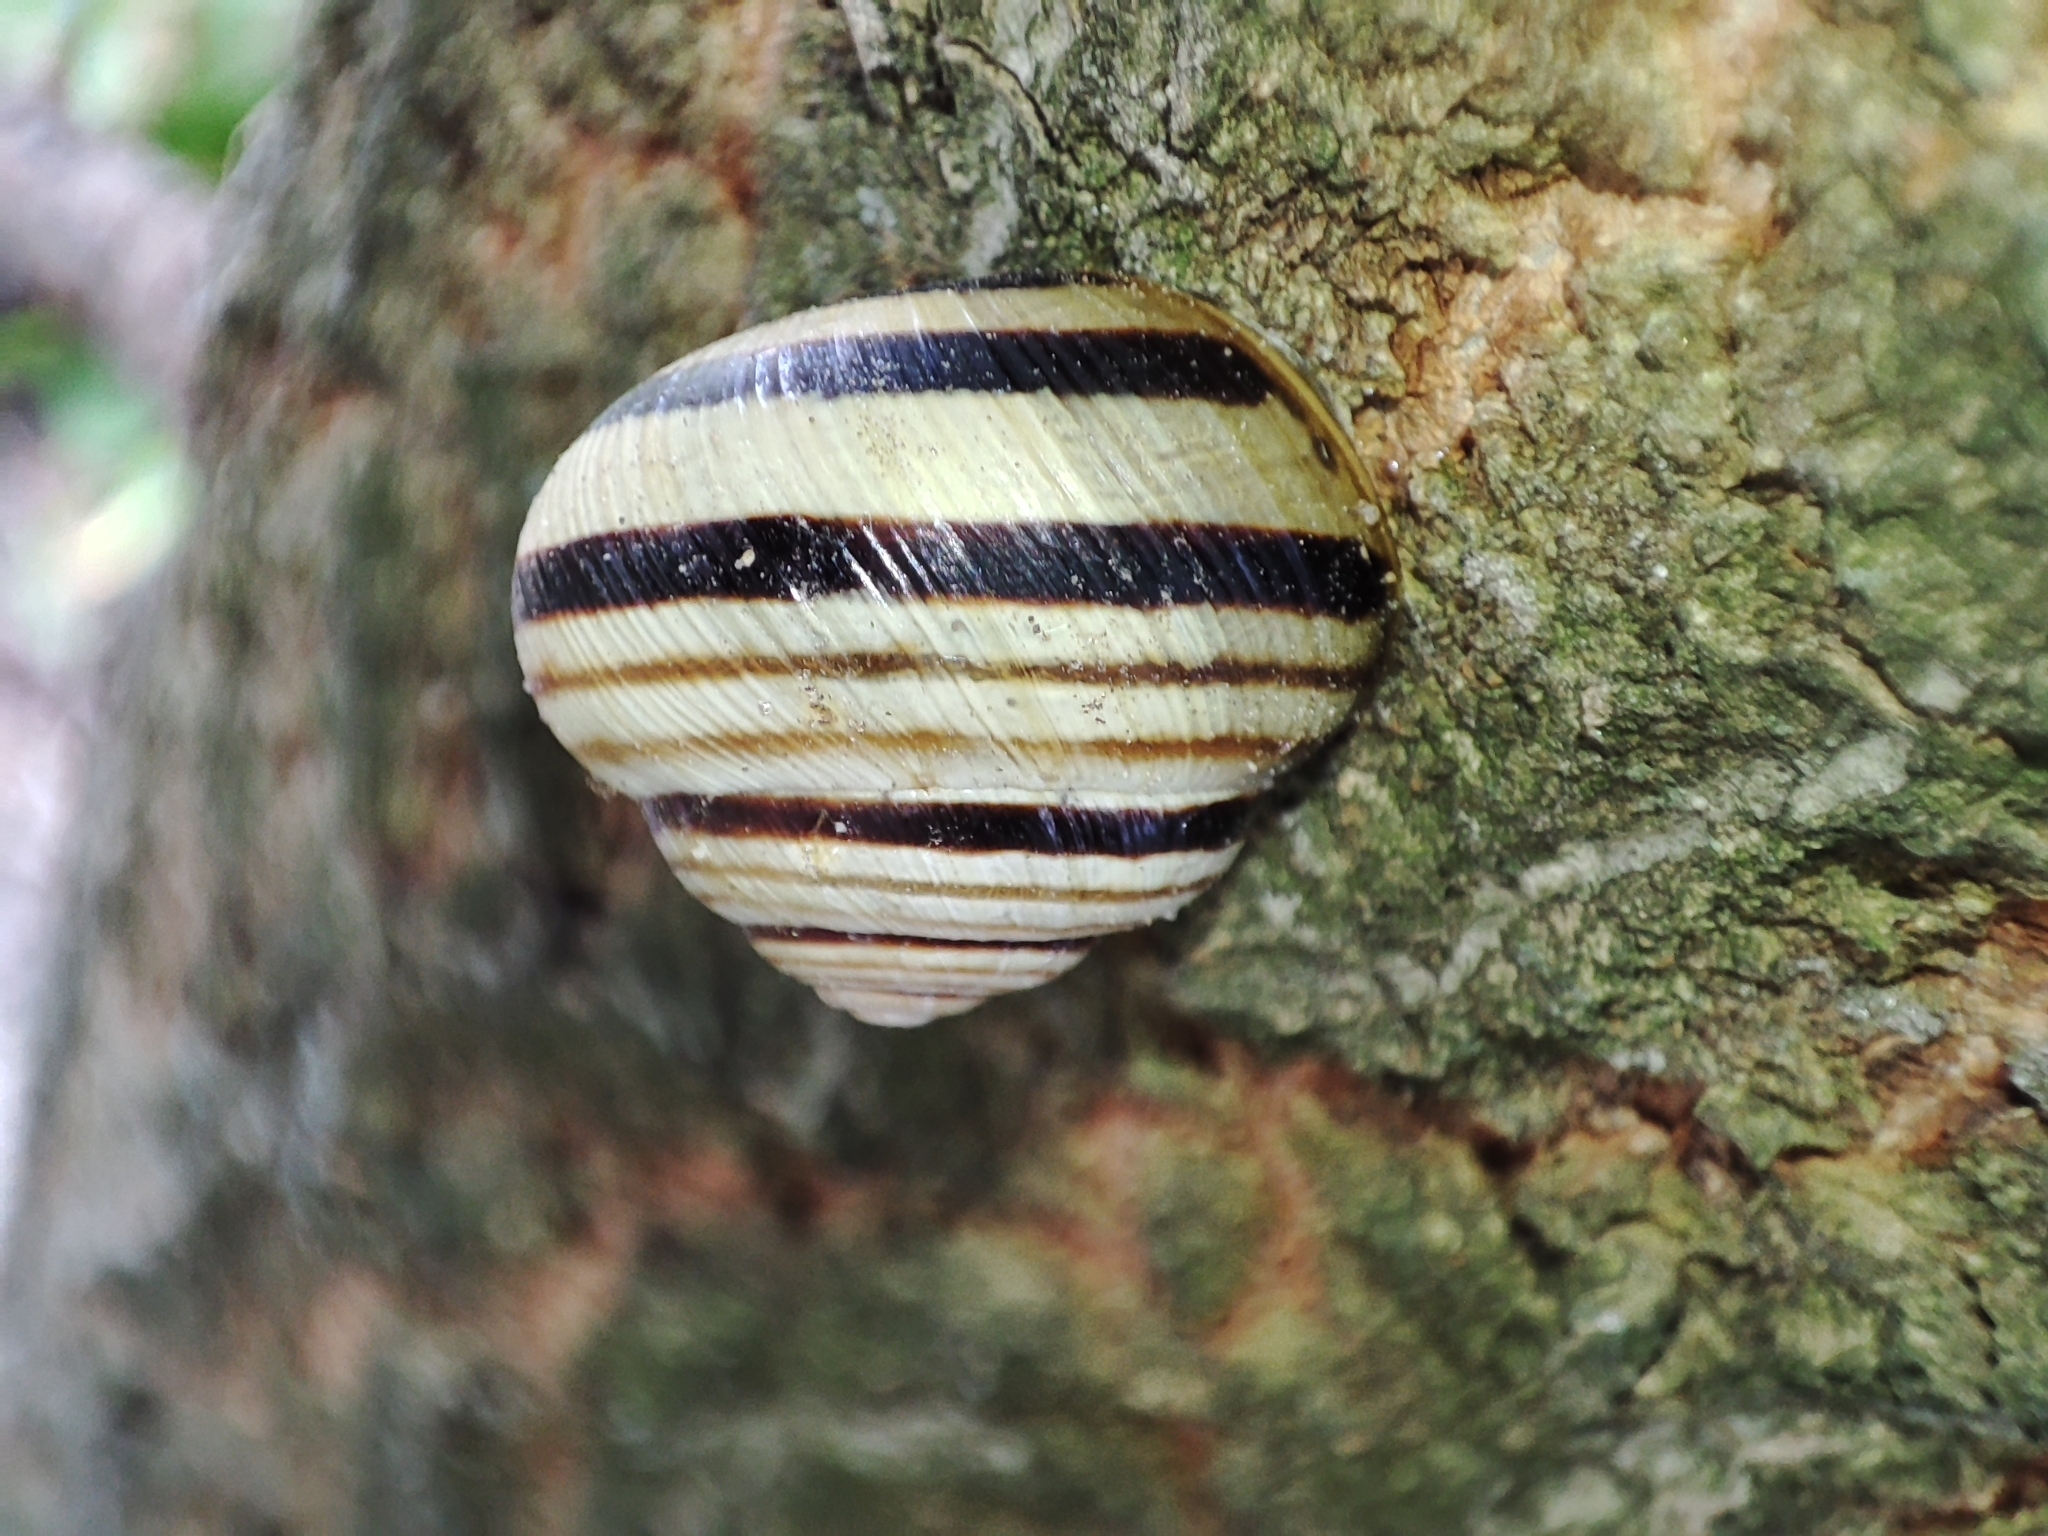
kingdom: Animalia
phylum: Mollusca
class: Gastropoda
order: Stylommatophora
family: Helicidae
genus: Caucasotachea
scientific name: Caucasotachea vindobonensis
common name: European helicid land snail
